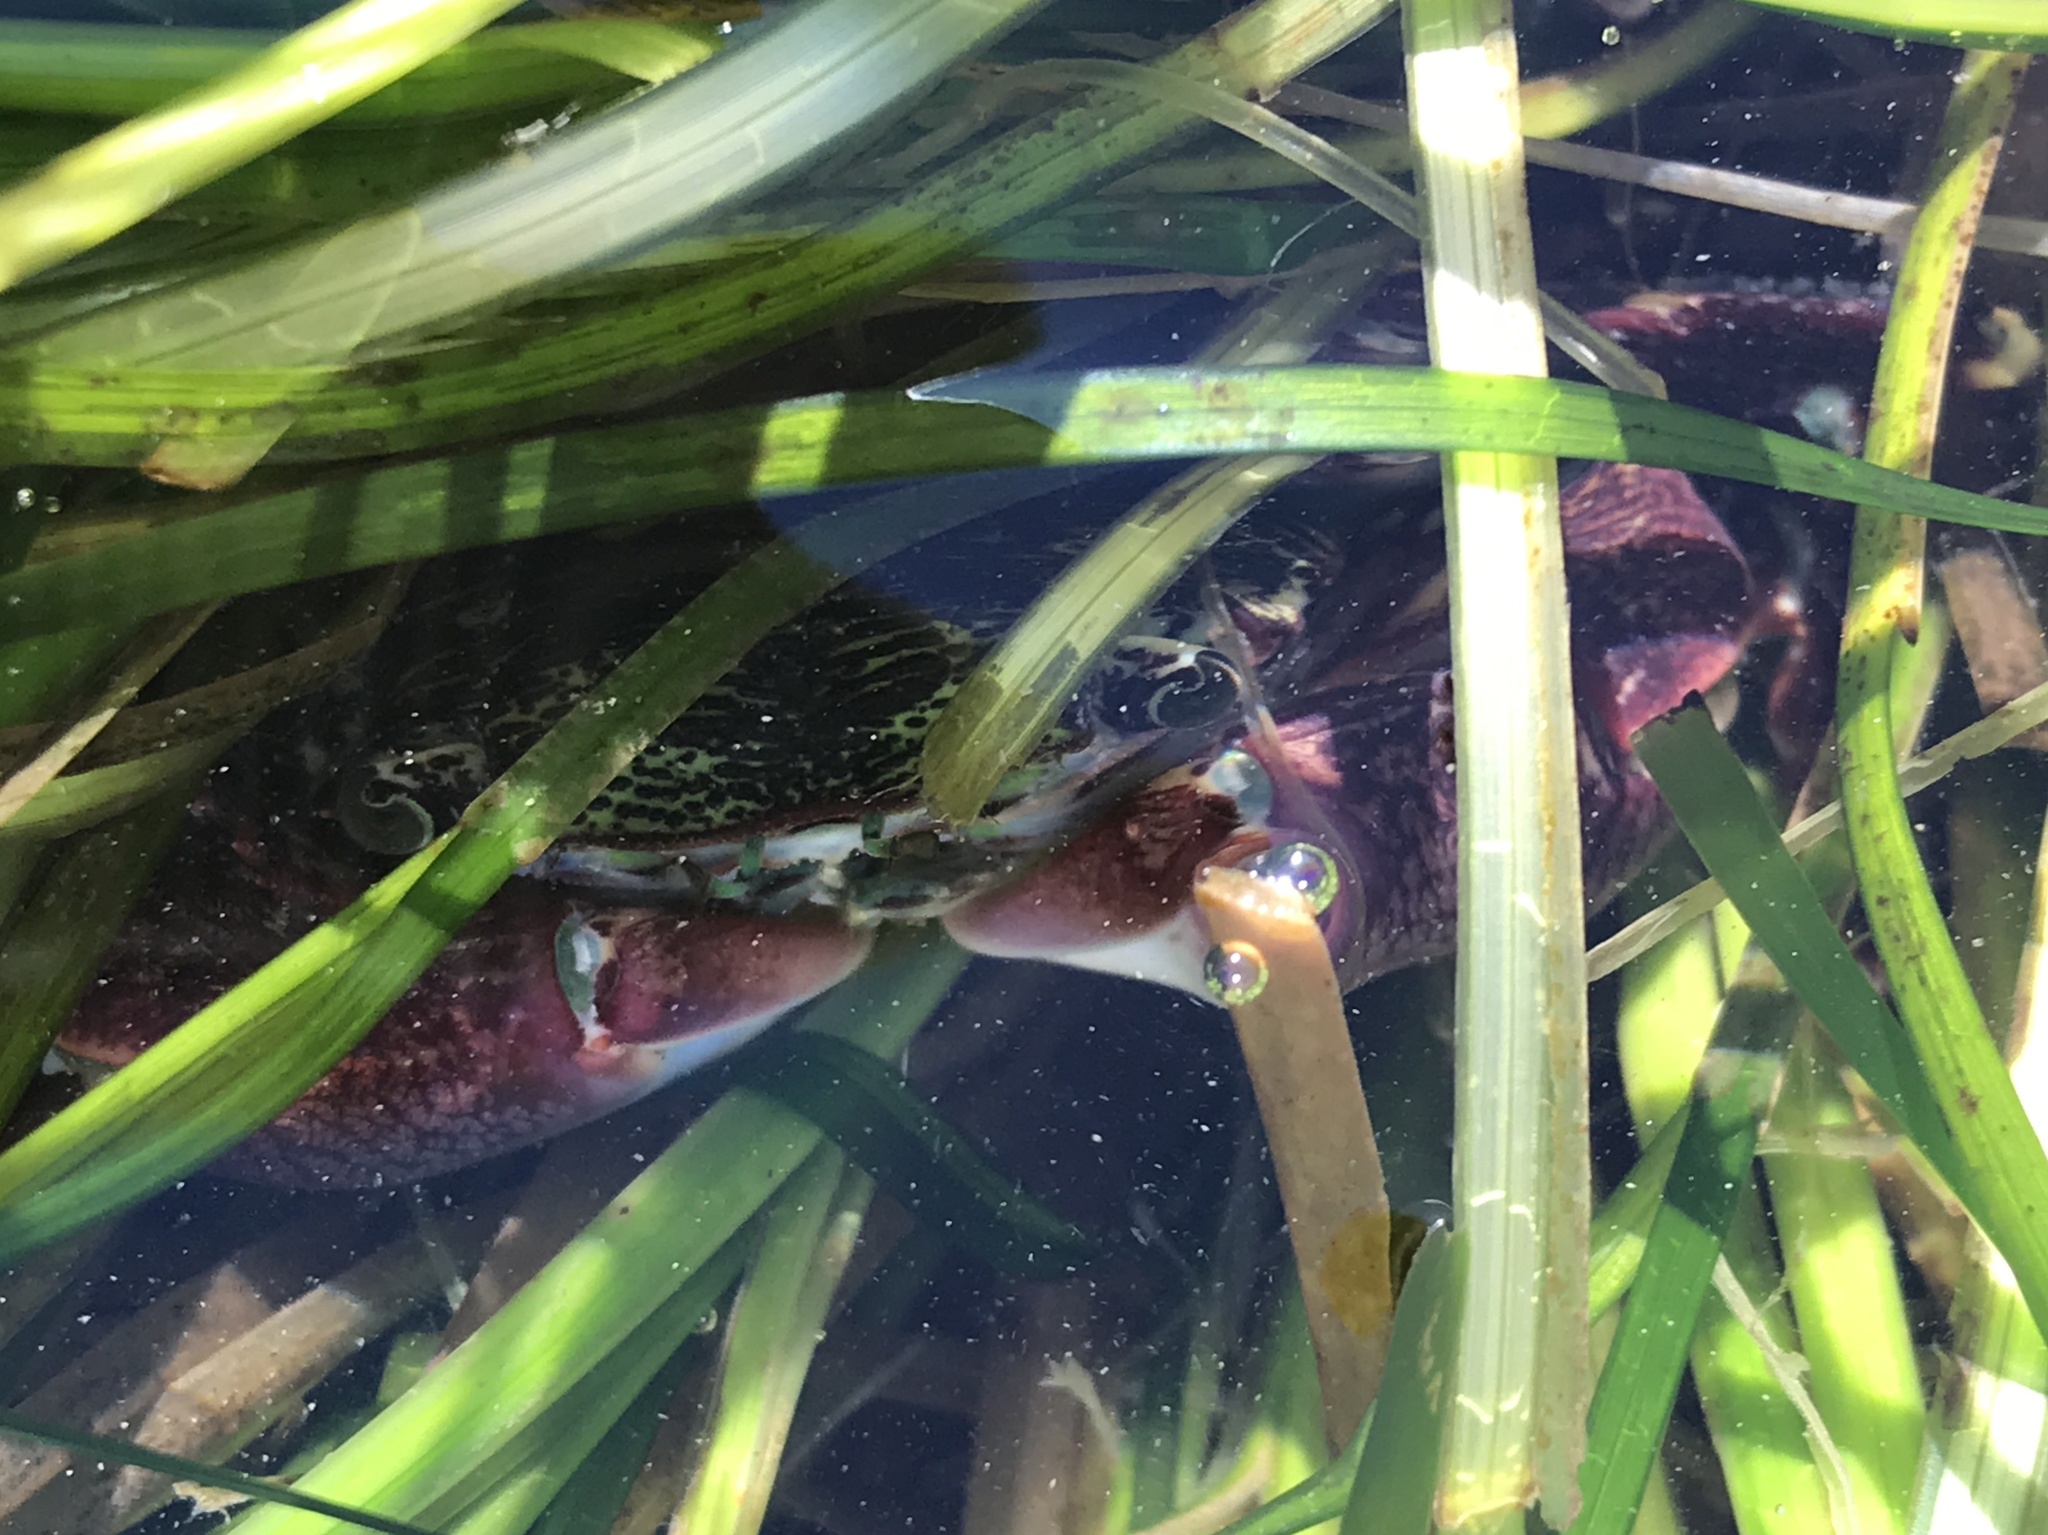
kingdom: Animalia
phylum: Arthropoda
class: Malacostraca
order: Decapoda
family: Grapsidae
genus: Pachygrapsus
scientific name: Pachygrapsus crassipes
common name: Striped shore crab
